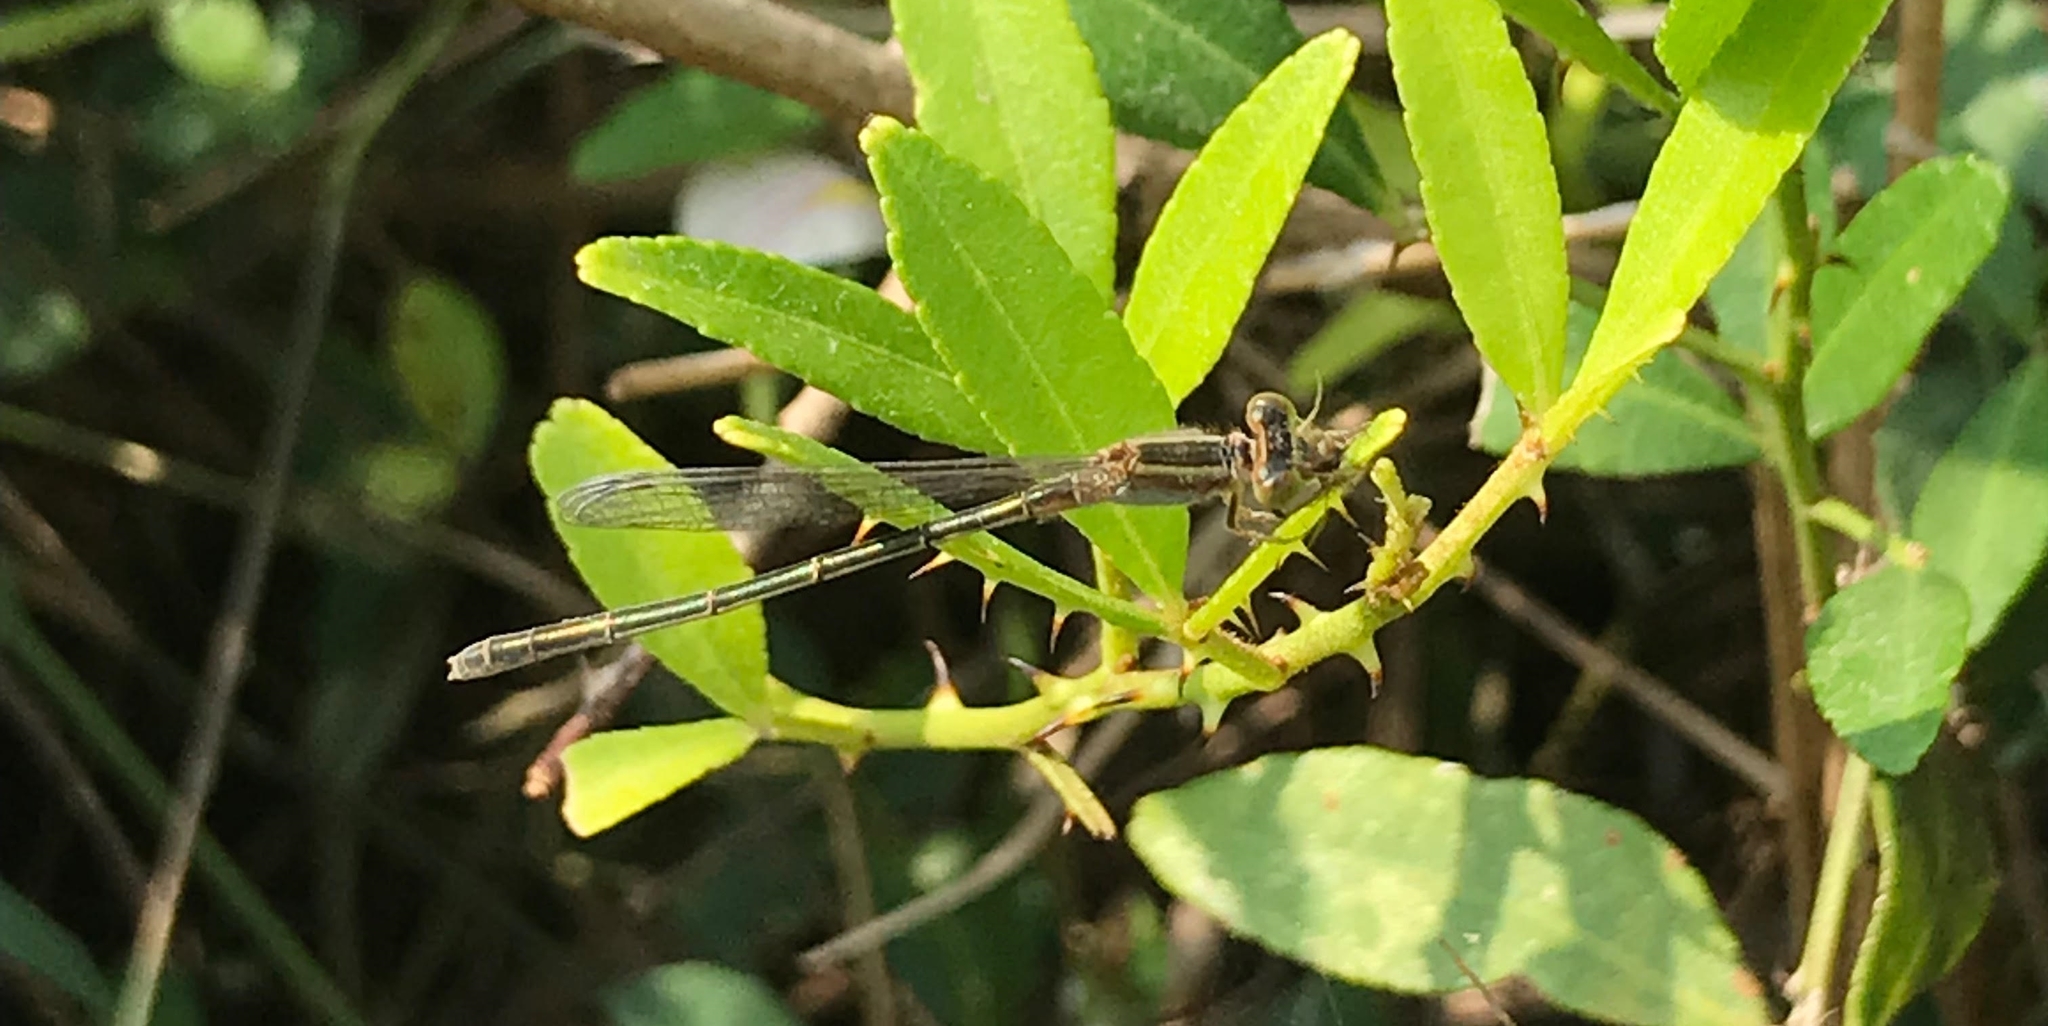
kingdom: Animalia
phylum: Arthropoda
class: Insecta
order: Odonata
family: Coenagrionidae
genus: Ischnura
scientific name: Ischnura senegalensis
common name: Tropical bluetail
